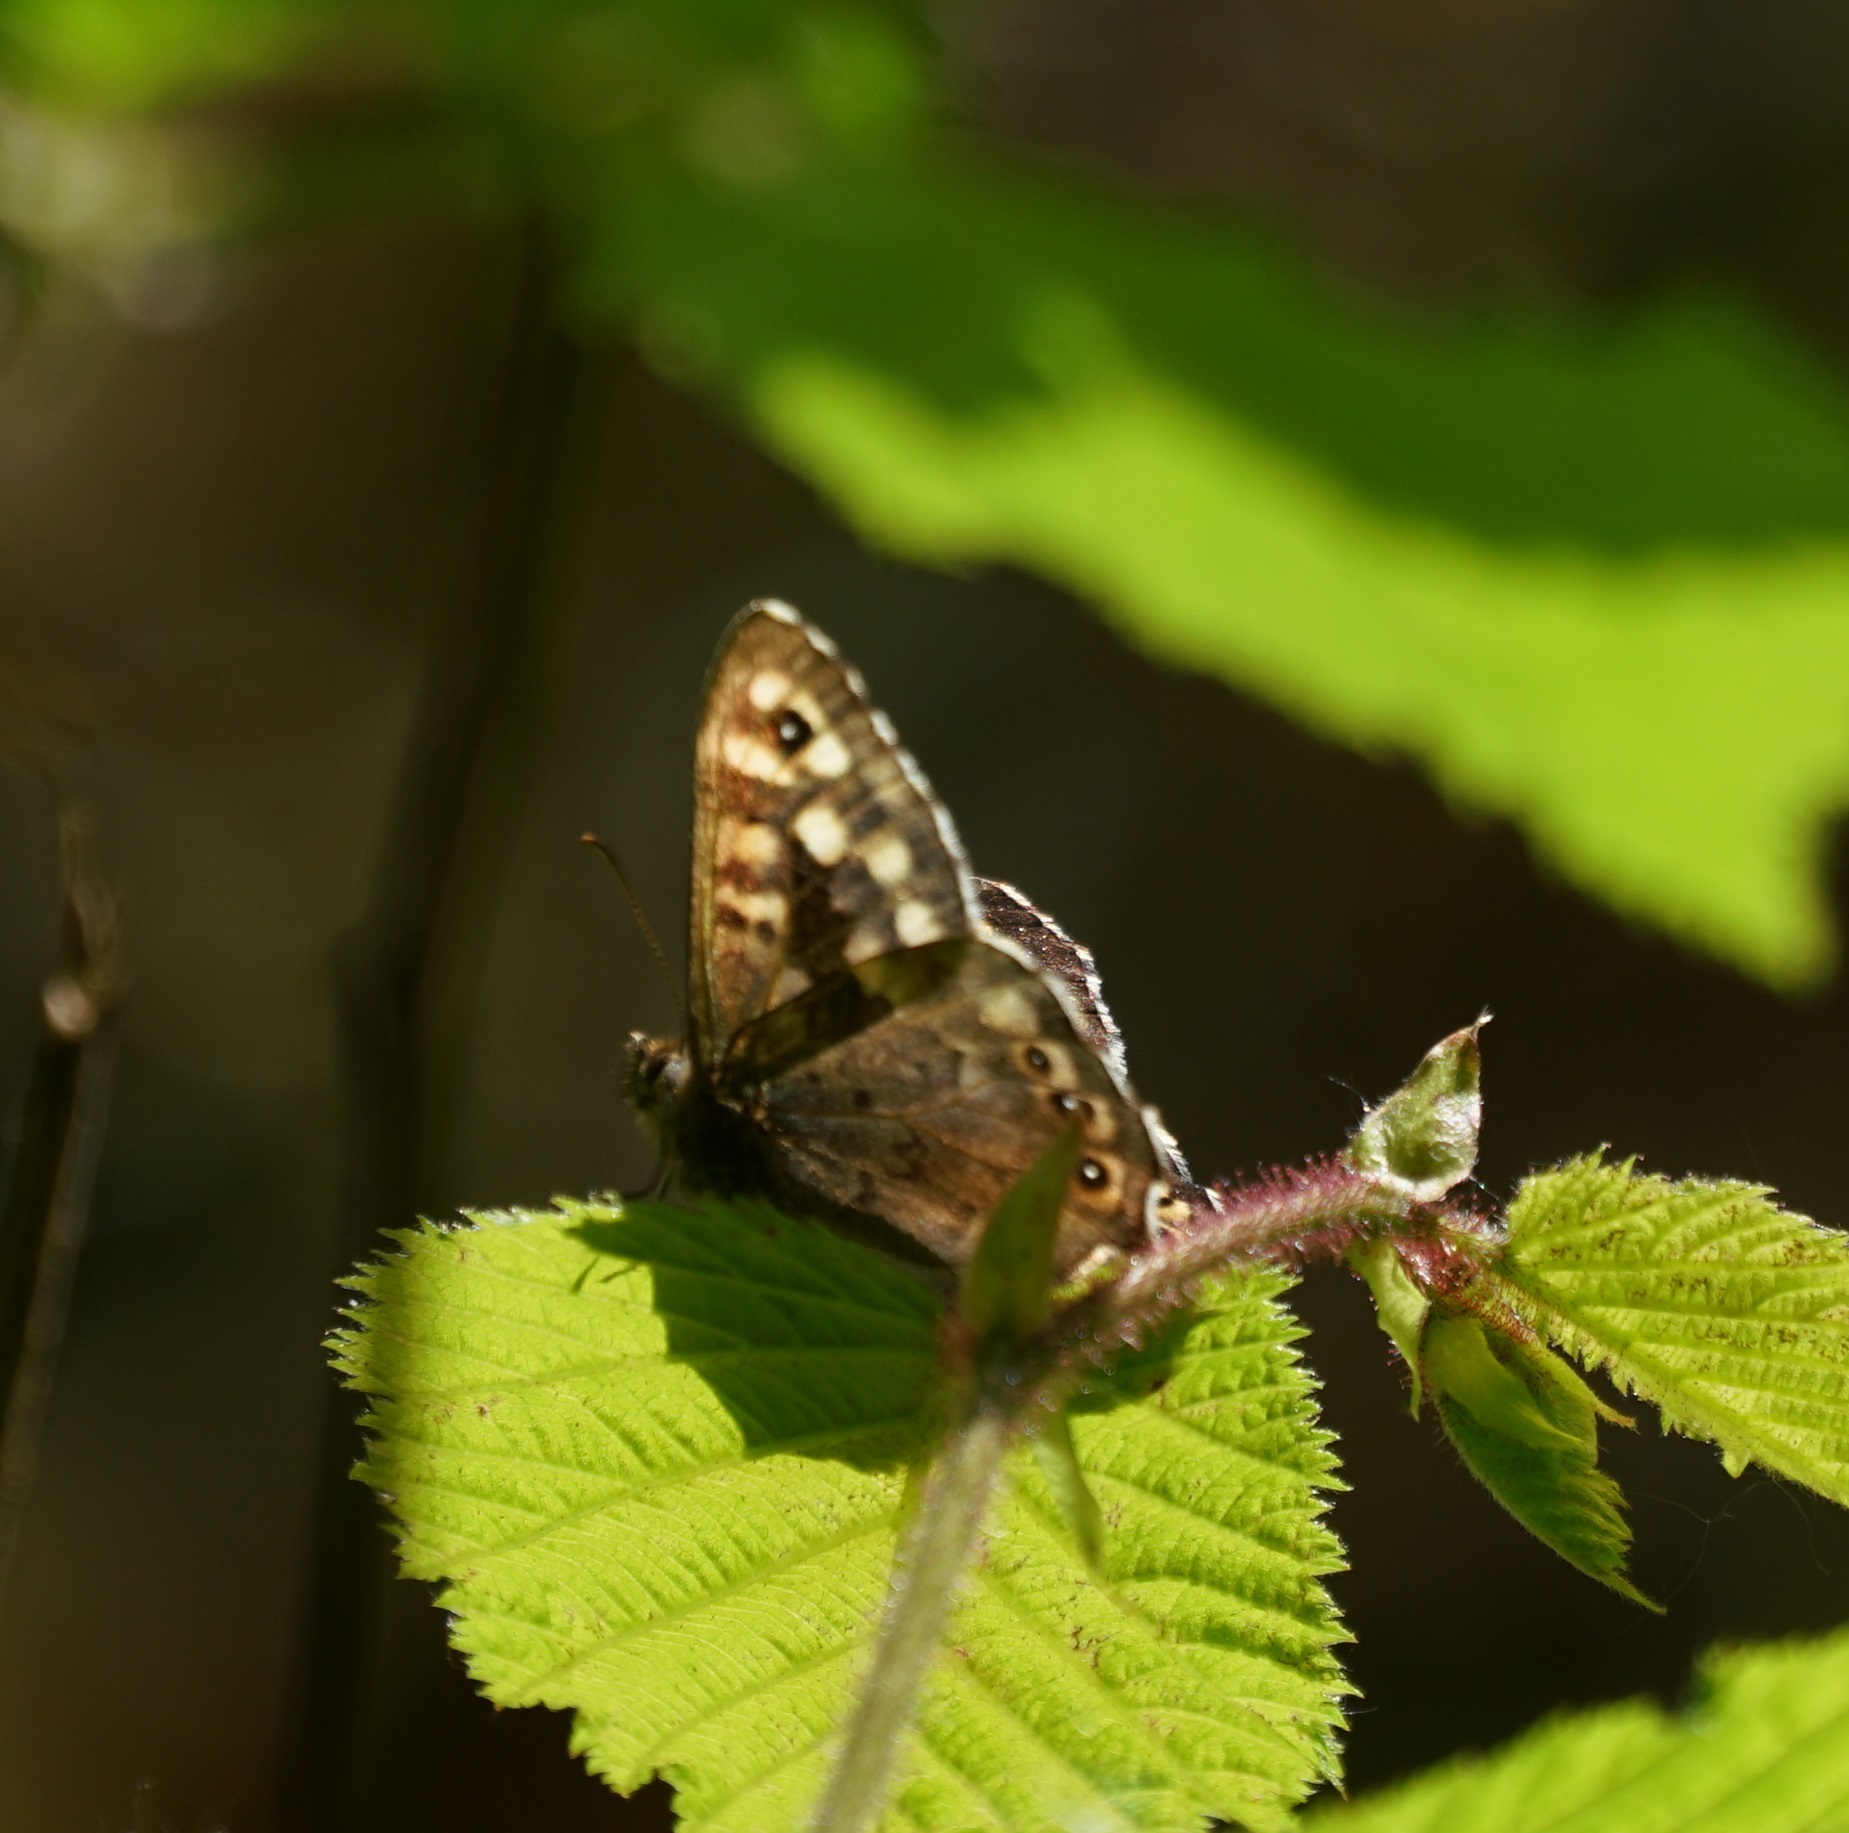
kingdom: Animalia
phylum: Arthropoda
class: Insecta
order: Lepidoptera
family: Nymphalidae
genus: Pararge
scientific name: Pararge aegeria
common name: Speckled wood
